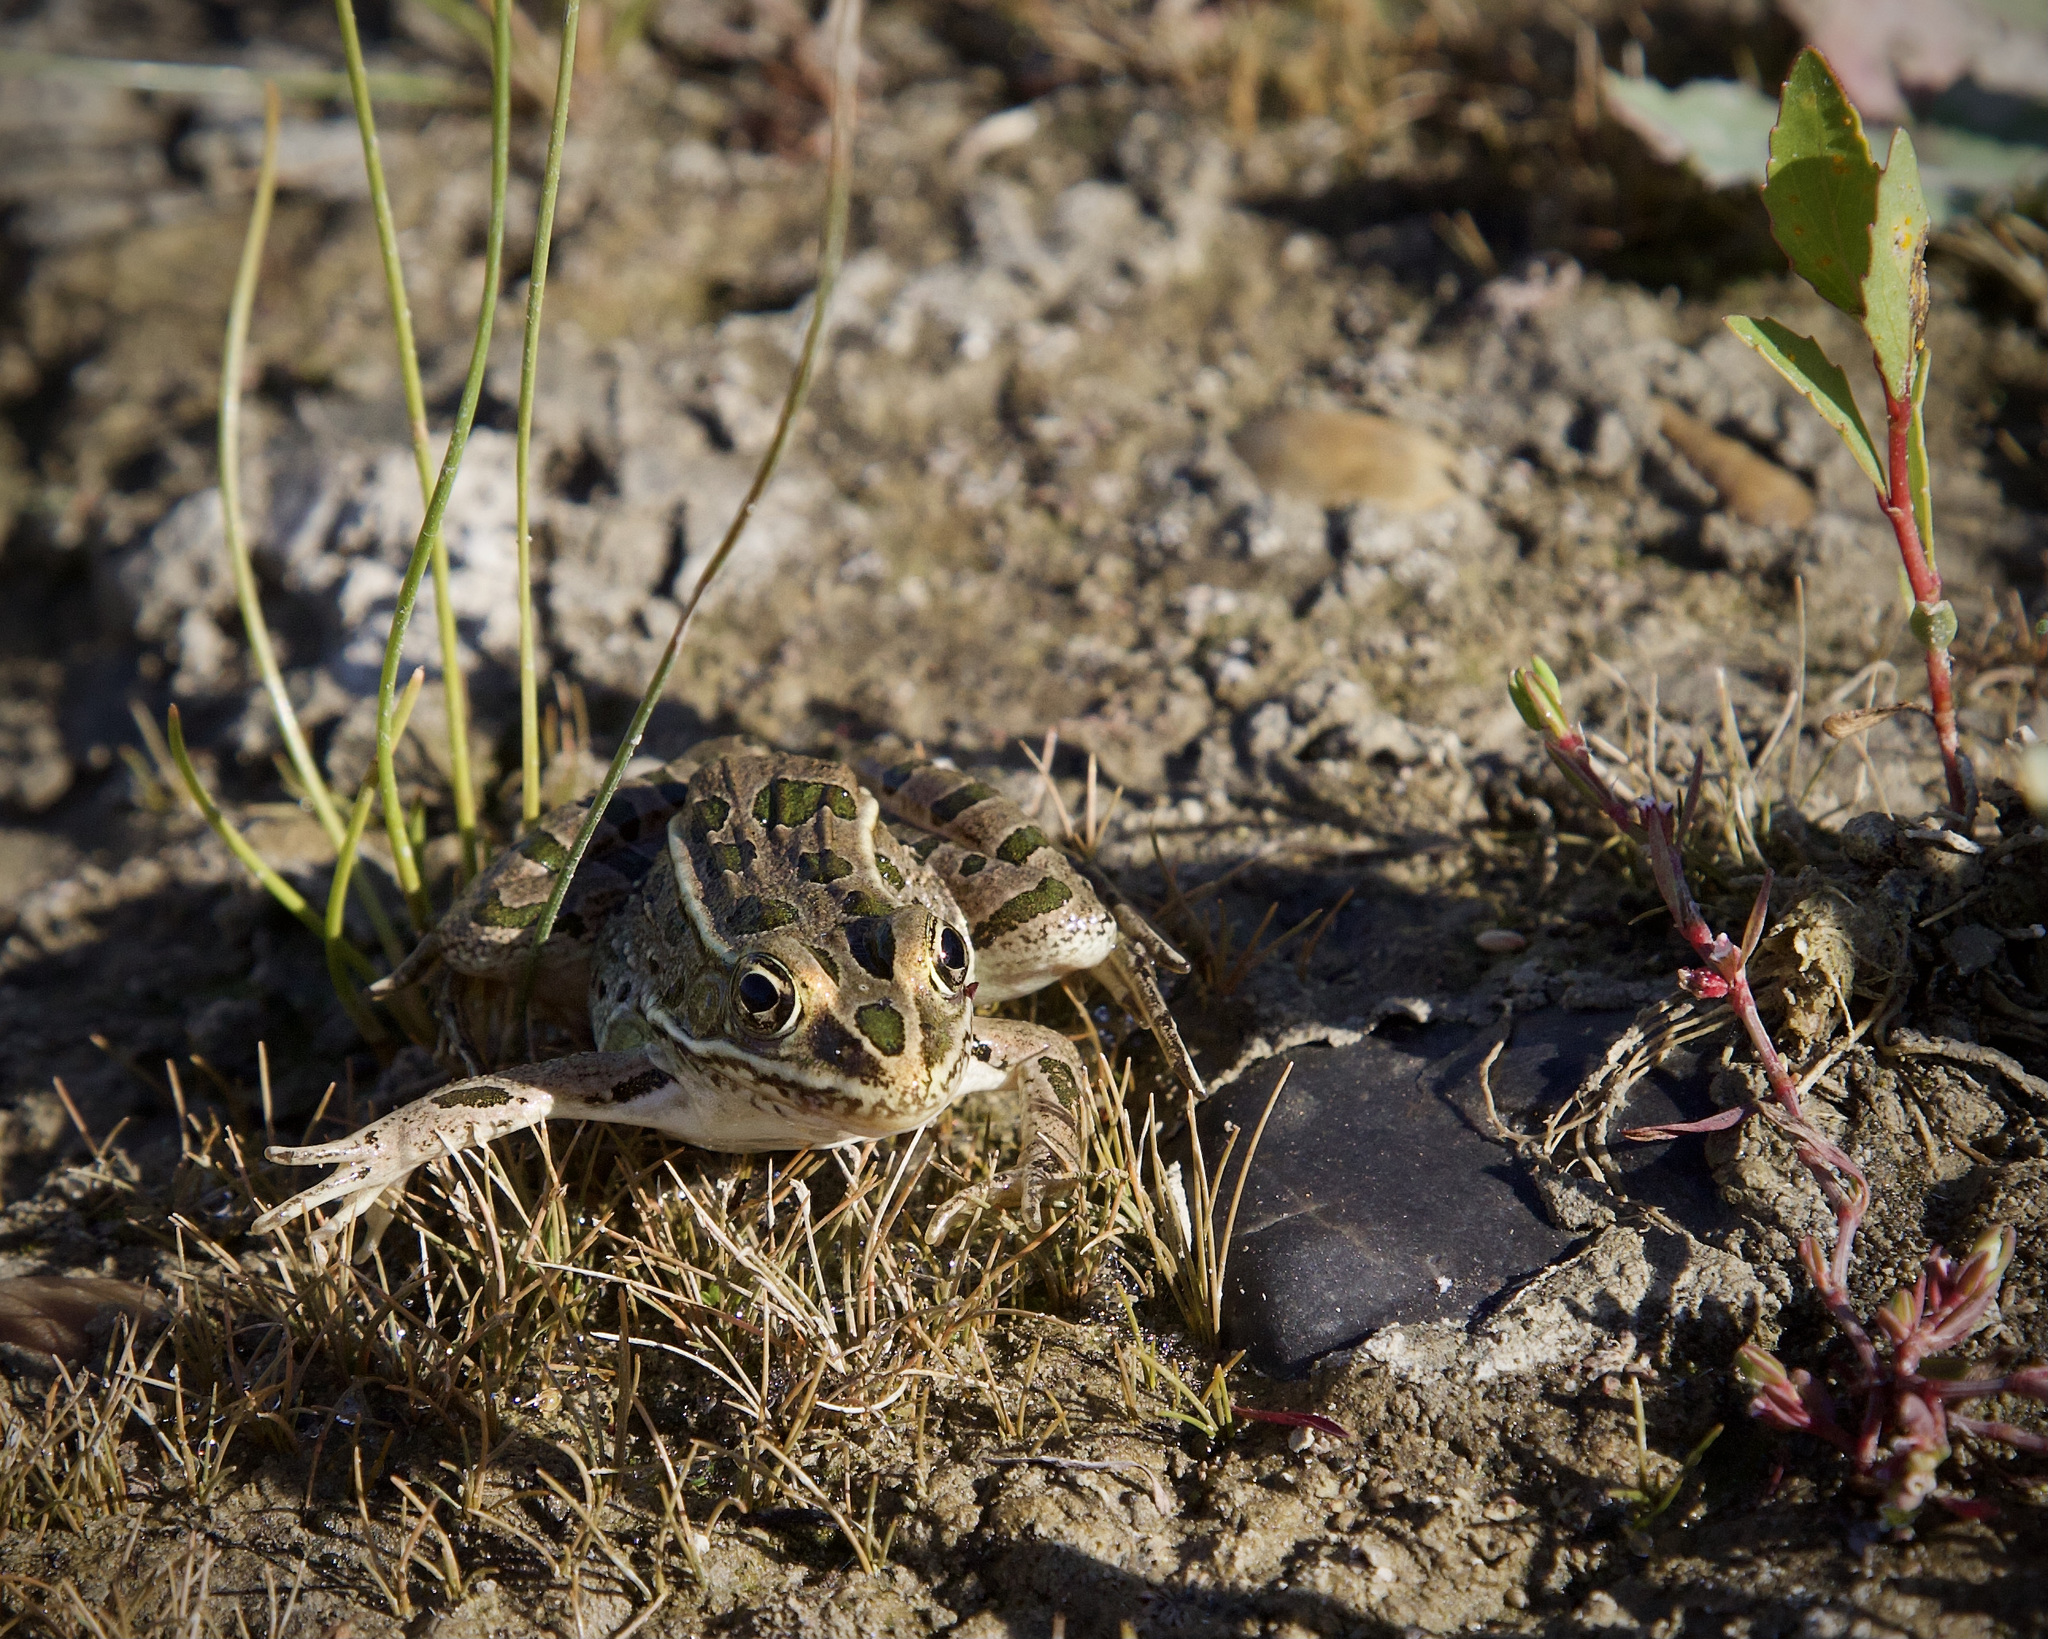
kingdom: Animalia
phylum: Chordata
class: Amphibia
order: Anura
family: Ranidae
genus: Lithobates
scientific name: Lithobates pipiens
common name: Northern leopard frog
